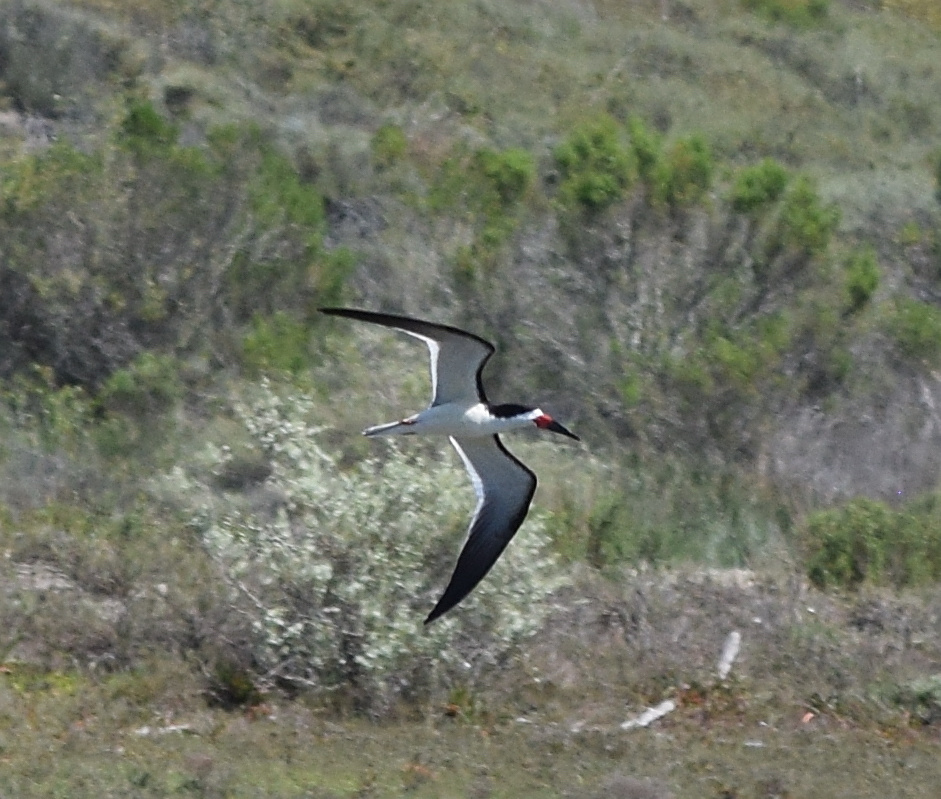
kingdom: Animalia
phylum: Chordata
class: Aves
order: Charadriiformes
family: Laridae
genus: Rynchops
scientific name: Rynchops niger
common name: Black skimmer
